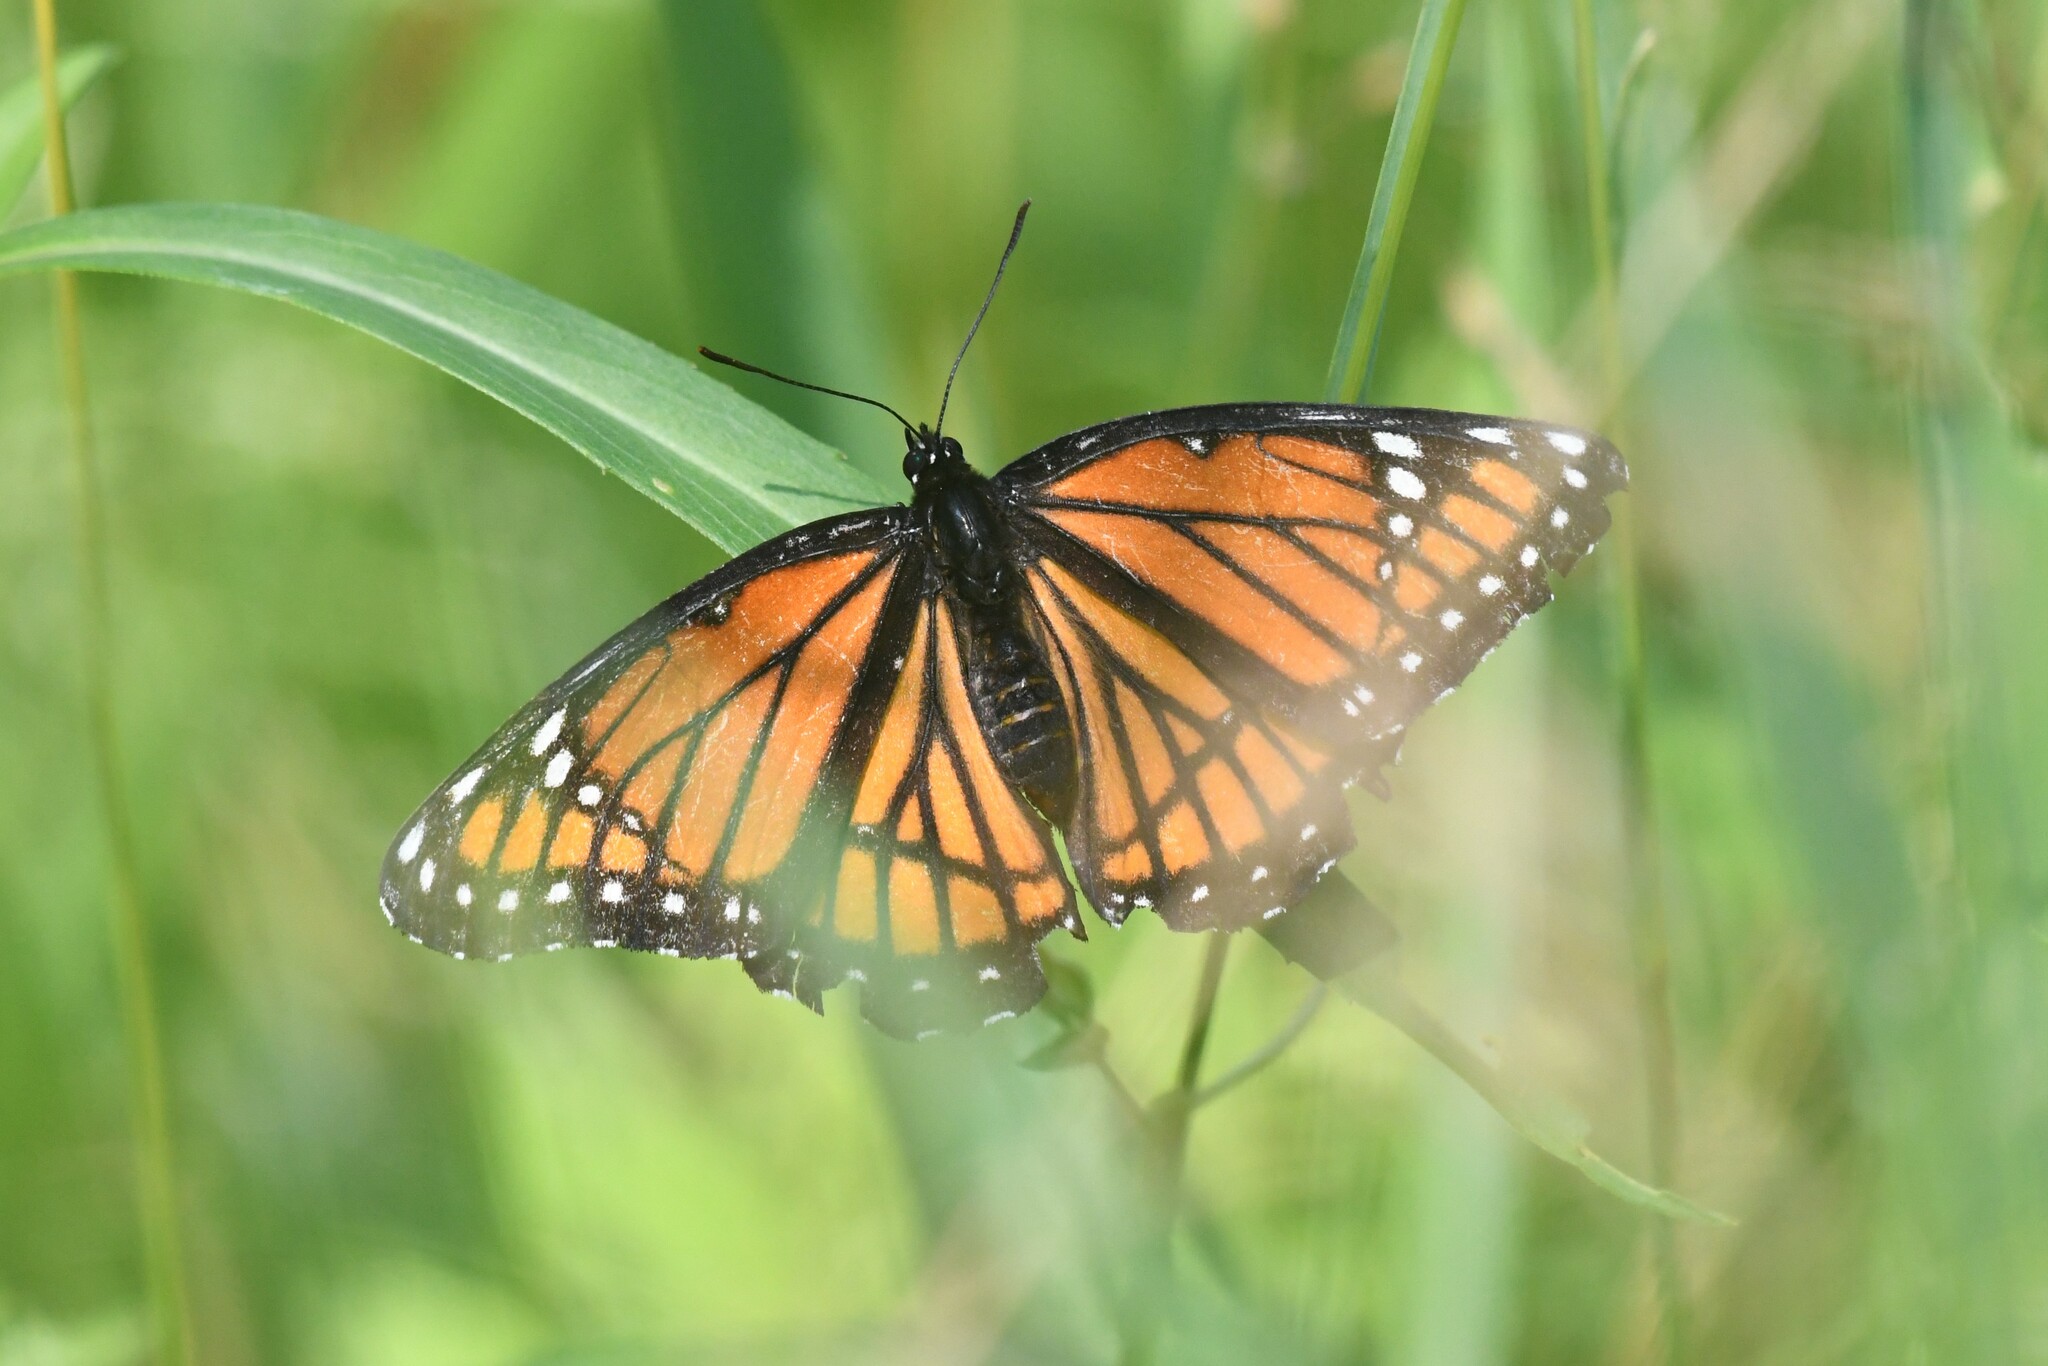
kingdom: Animalia
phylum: Arthropoda
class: Insecta
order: Lepidoptera
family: Nymphalidae
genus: Limenitis
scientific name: Limenitis archippus
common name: Viceroy
